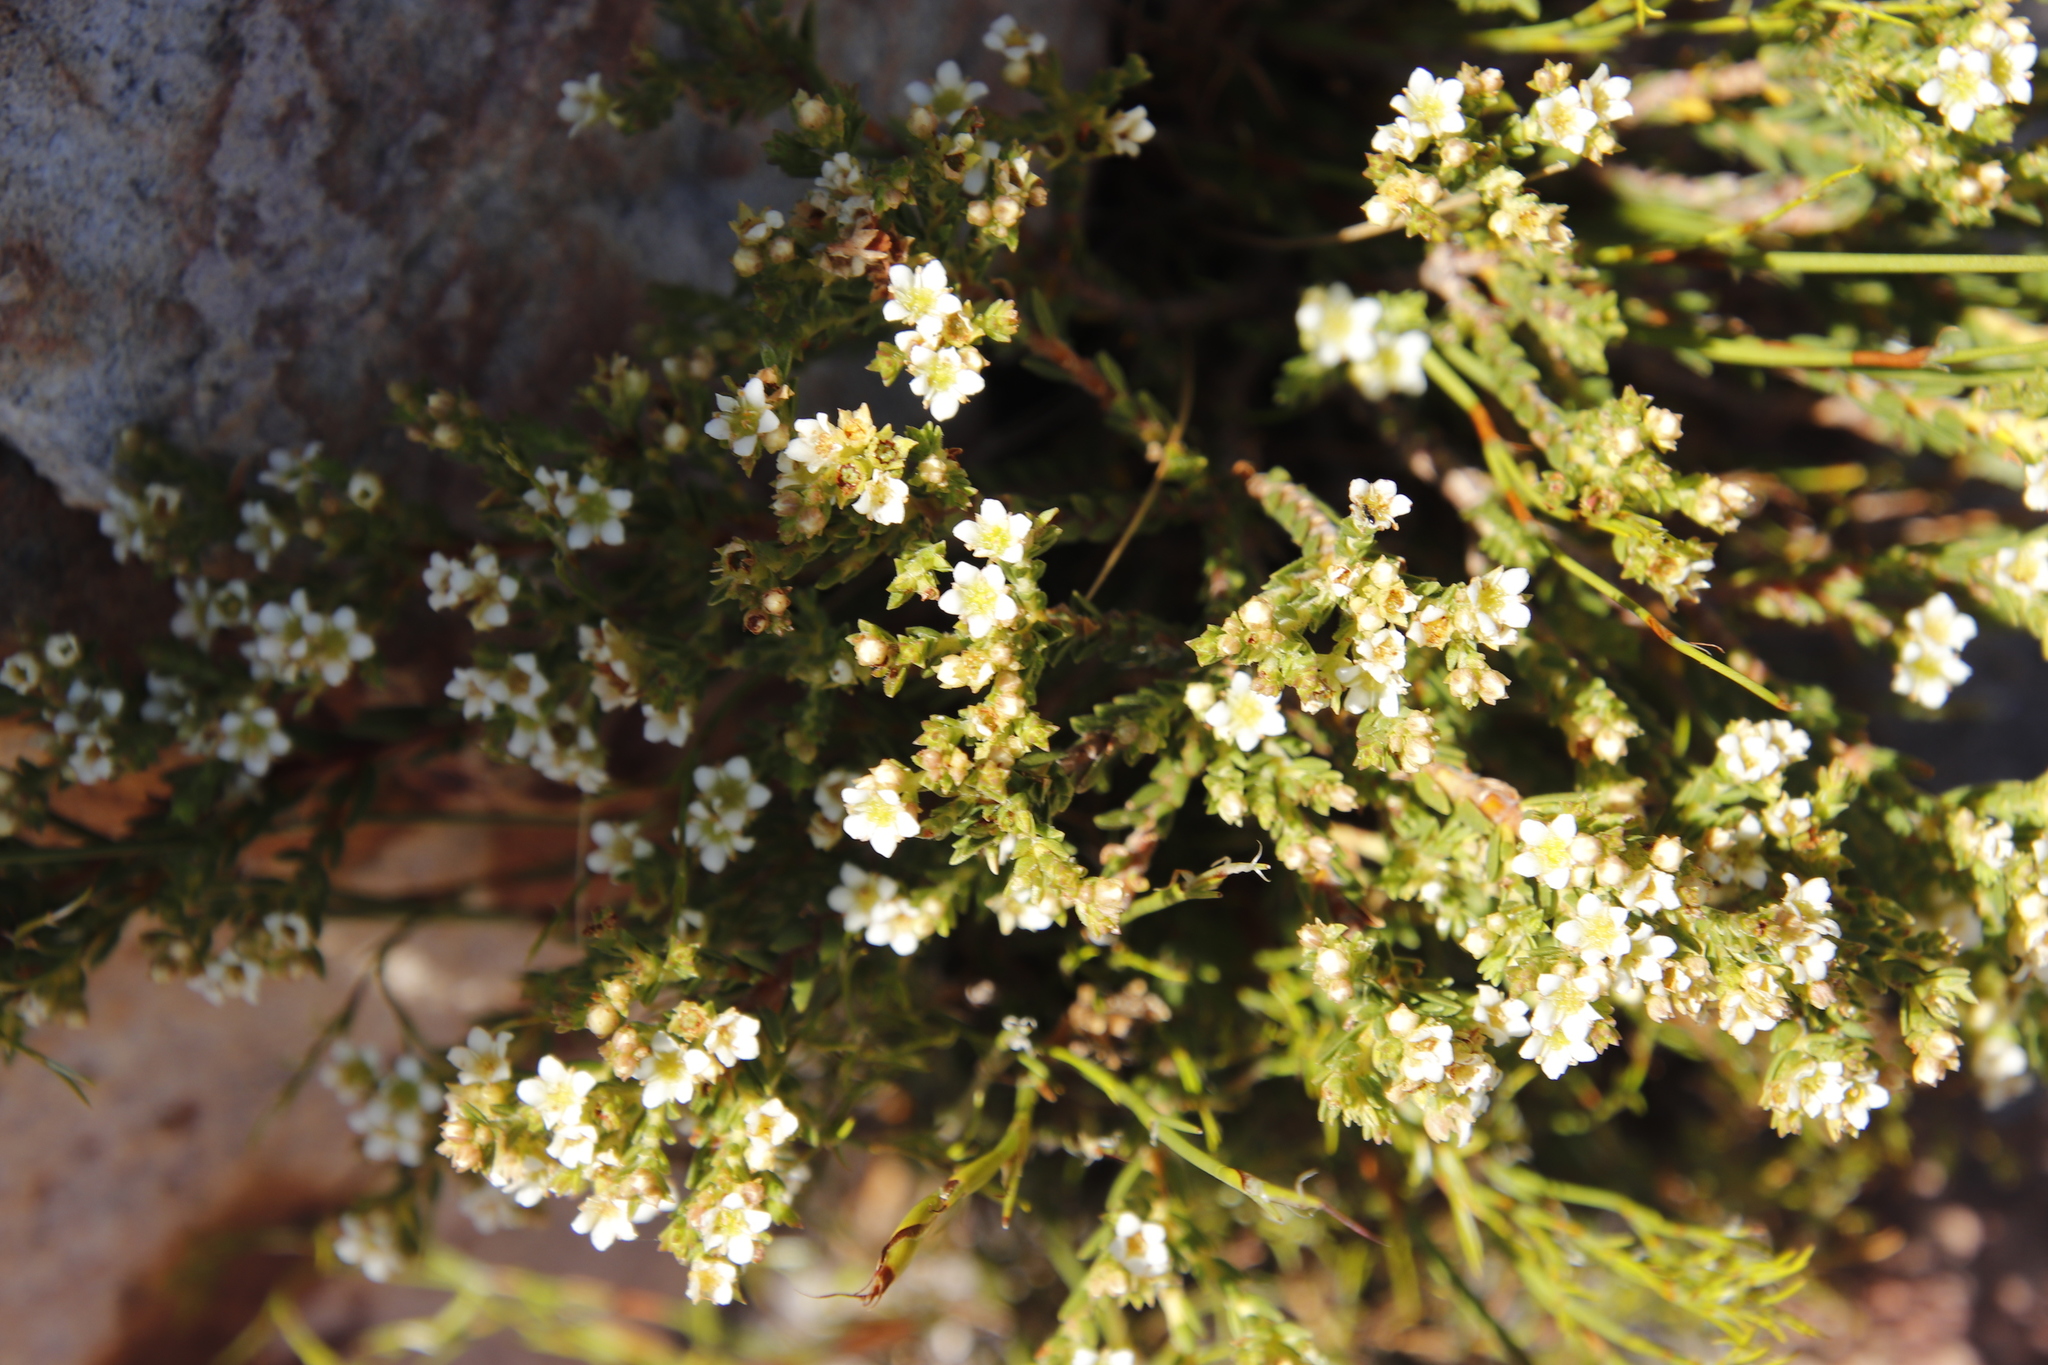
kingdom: Plantae
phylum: Tracheophyta
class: Magnoliopsida
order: Sapindales
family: Rutaceae
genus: Diosma
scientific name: Diosma oppositifolia
